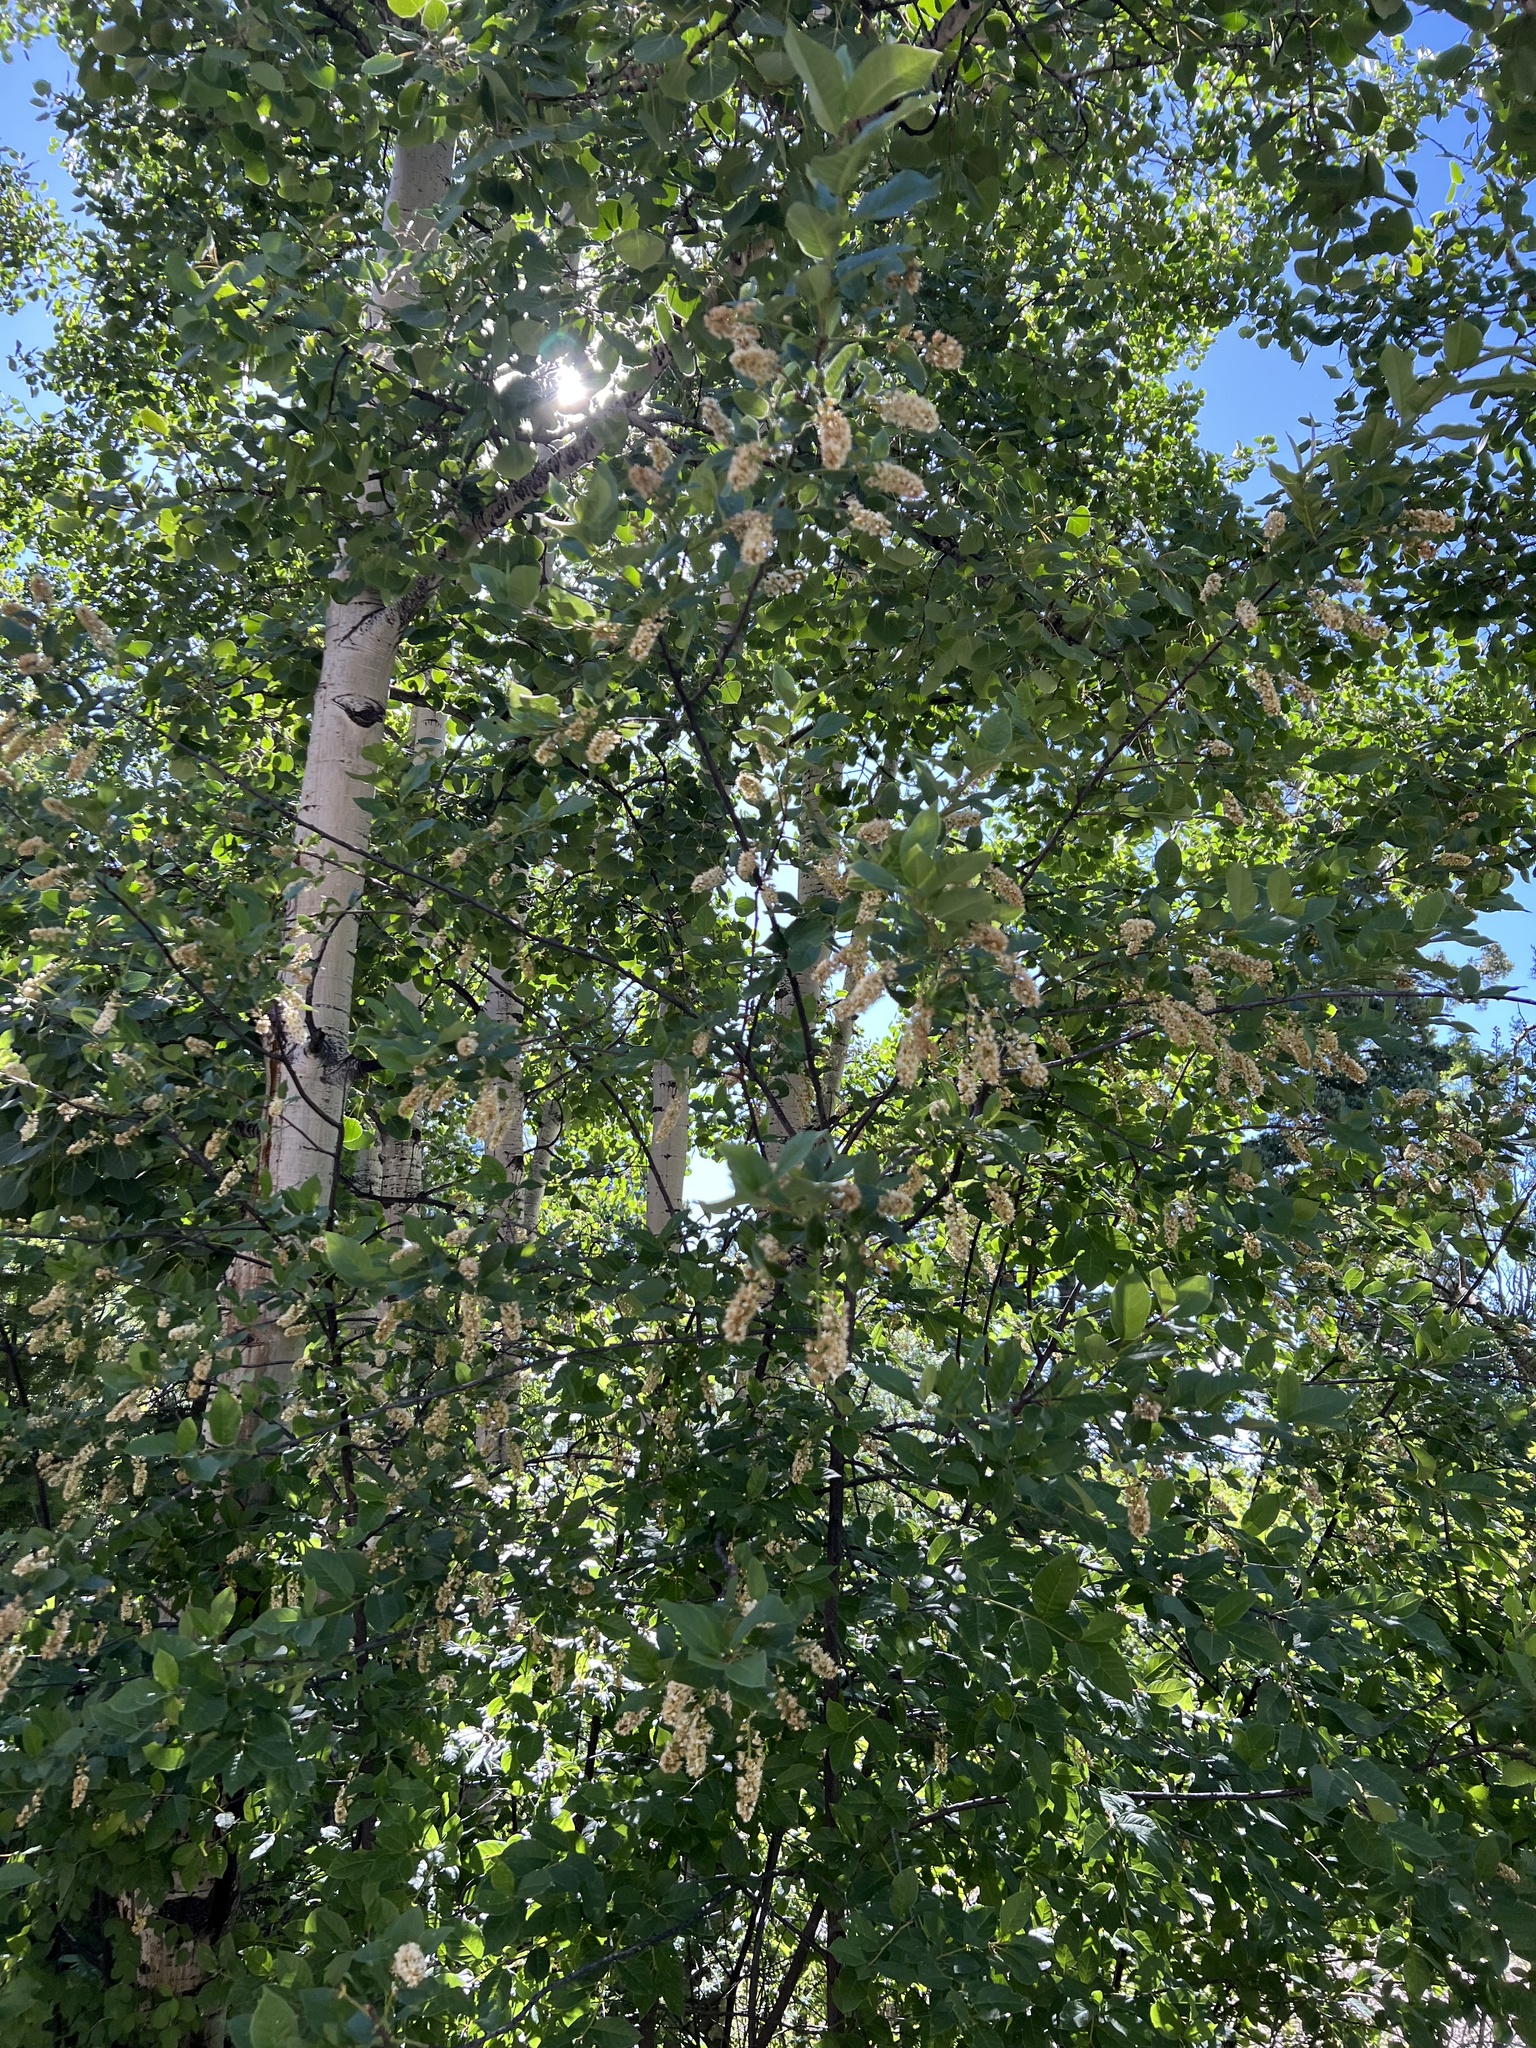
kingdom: Plantae
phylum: Tracheophyta
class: Magnoliopsida
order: Rosales
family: Rosaceae
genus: Prunus
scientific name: Prunus virginiana
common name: Chokecherry
